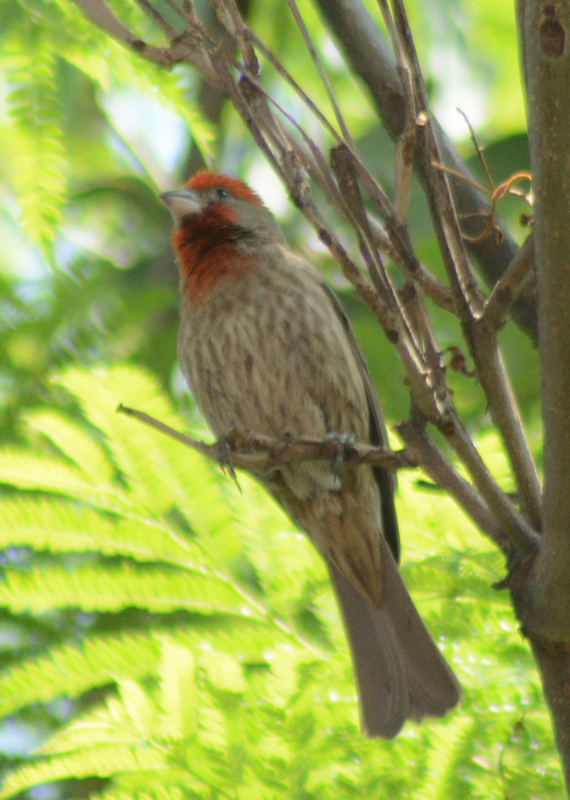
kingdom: Animalia
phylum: Chordata
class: Aves
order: Passeriformes
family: Fringillidae
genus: Haemorhous
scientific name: Haemorhous mexicanus
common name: House finch
